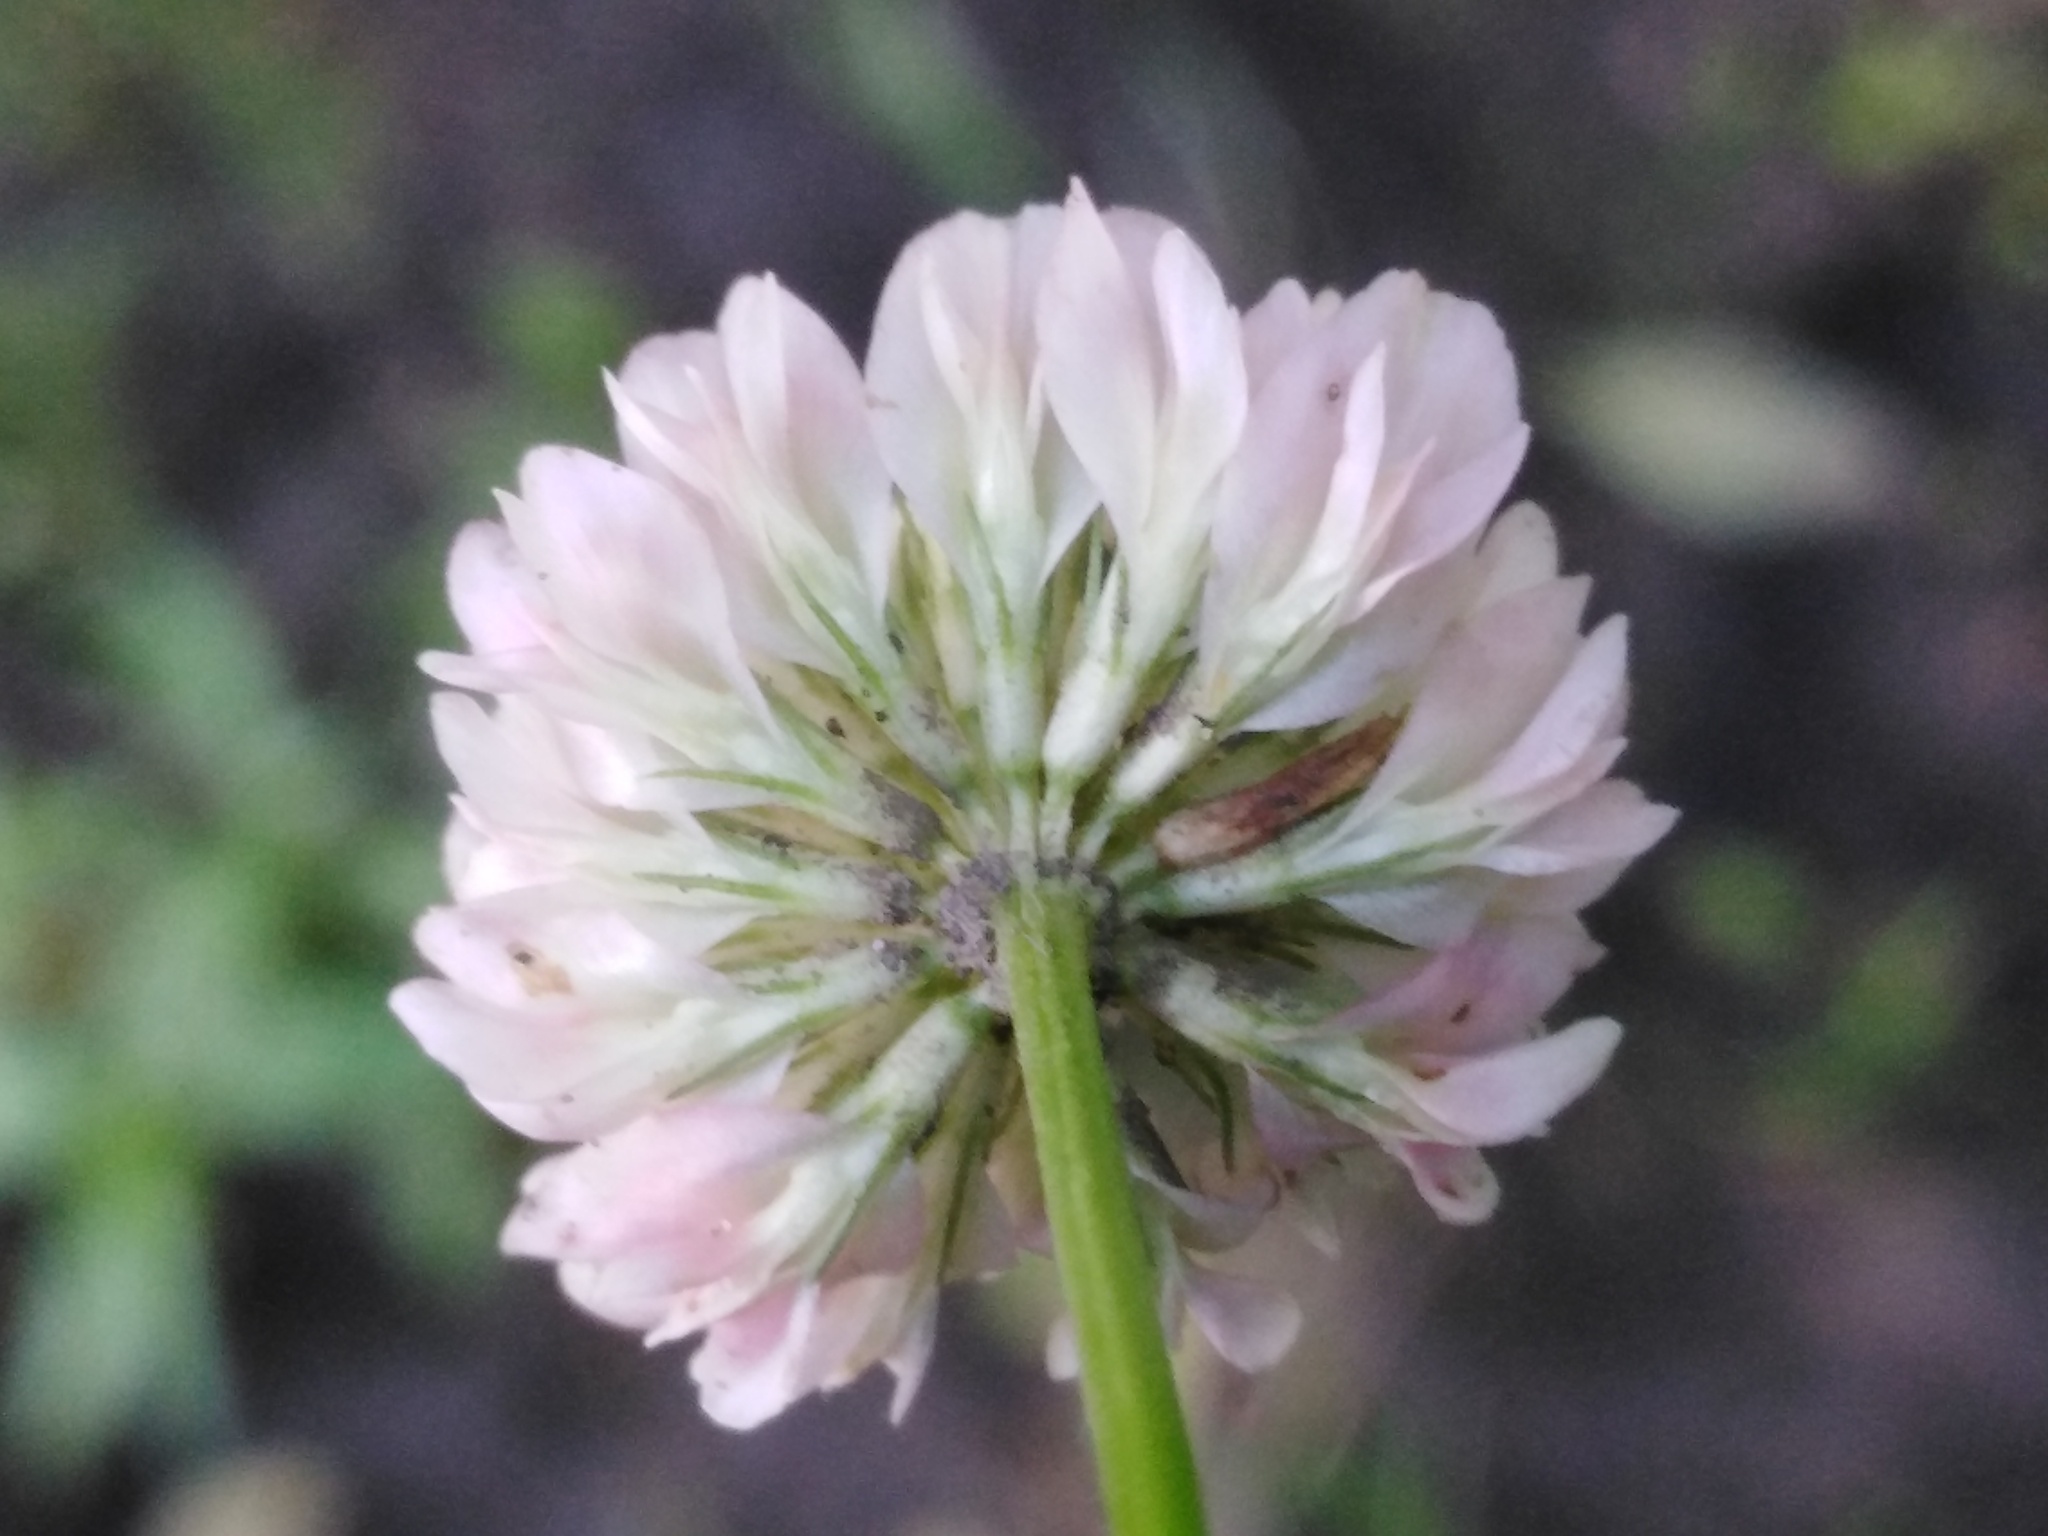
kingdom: Plantae
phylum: Tracheophyta
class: Magnoliopsida
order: Fabales
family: Fabaceae
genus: Trifolium
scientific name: Trifolium repens
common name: White clover
